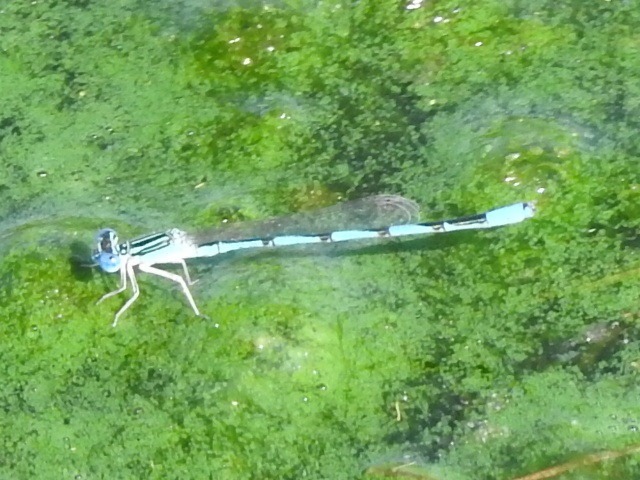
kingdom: Animalia
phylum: Arthropoda
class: Insecta
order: Odonata
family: Coenagrionidae
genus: Enallagma
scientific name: Enallagma basidens
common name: Double-striped bluet
